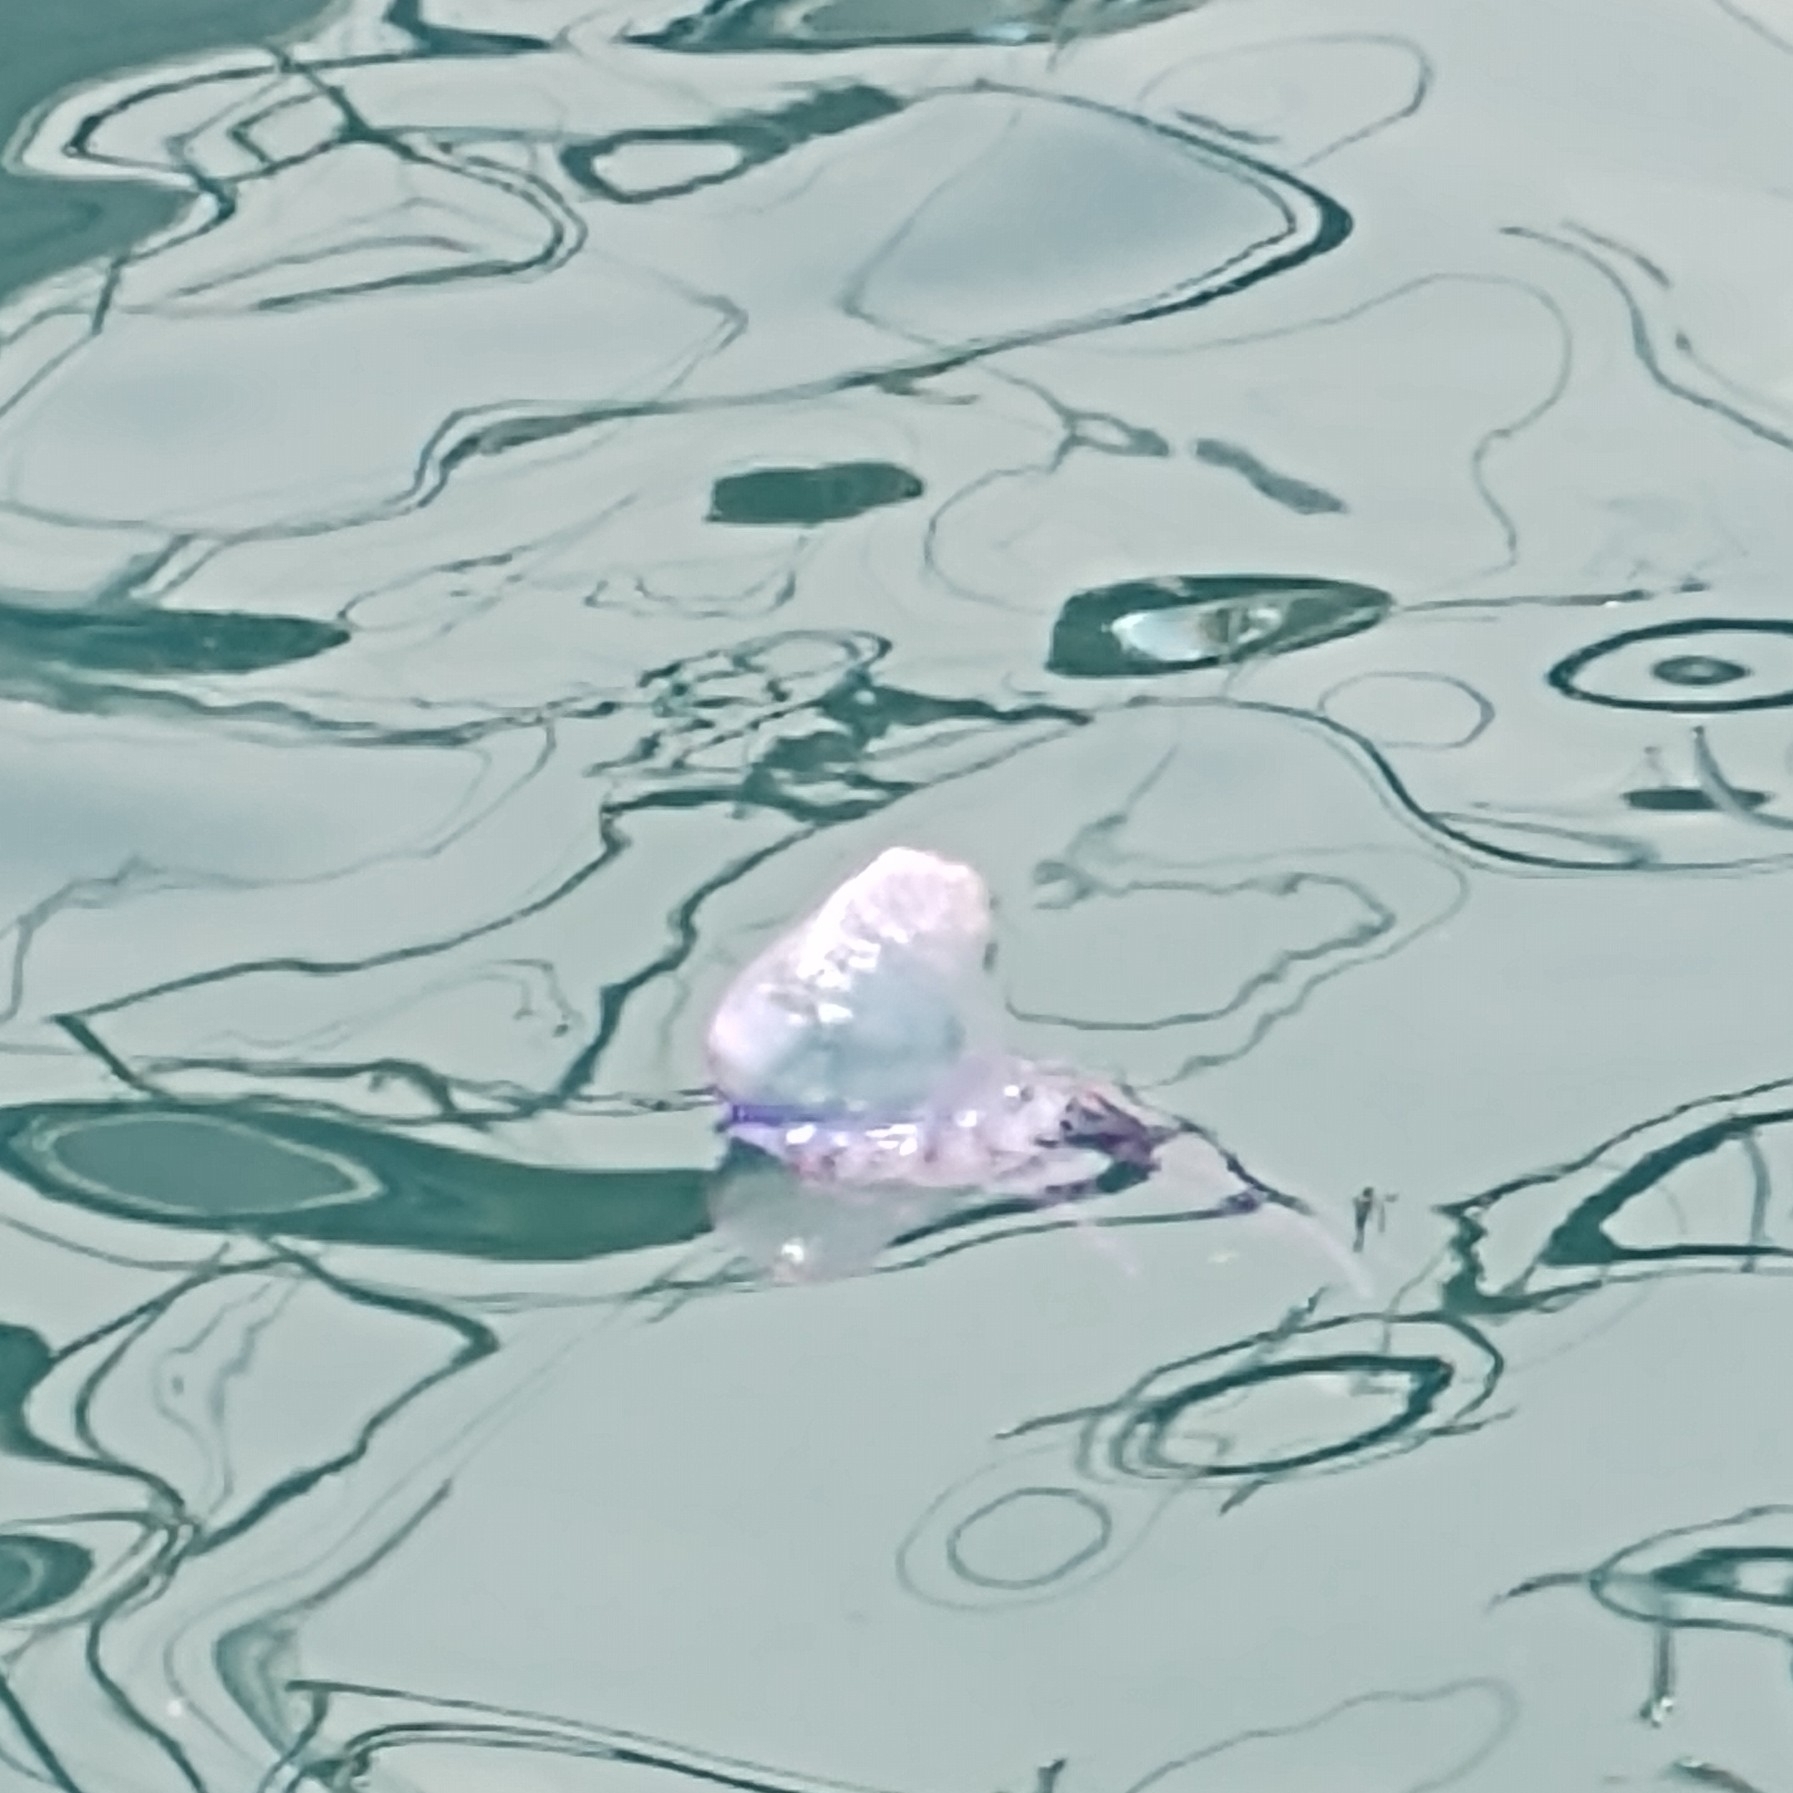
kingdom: Animalia
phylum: Cnidaria
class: Hydrozoa
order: Siphonophorae
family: Physaliidae
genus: Physalia
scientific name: Physalia physalis
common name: Portuguese man-of-war
